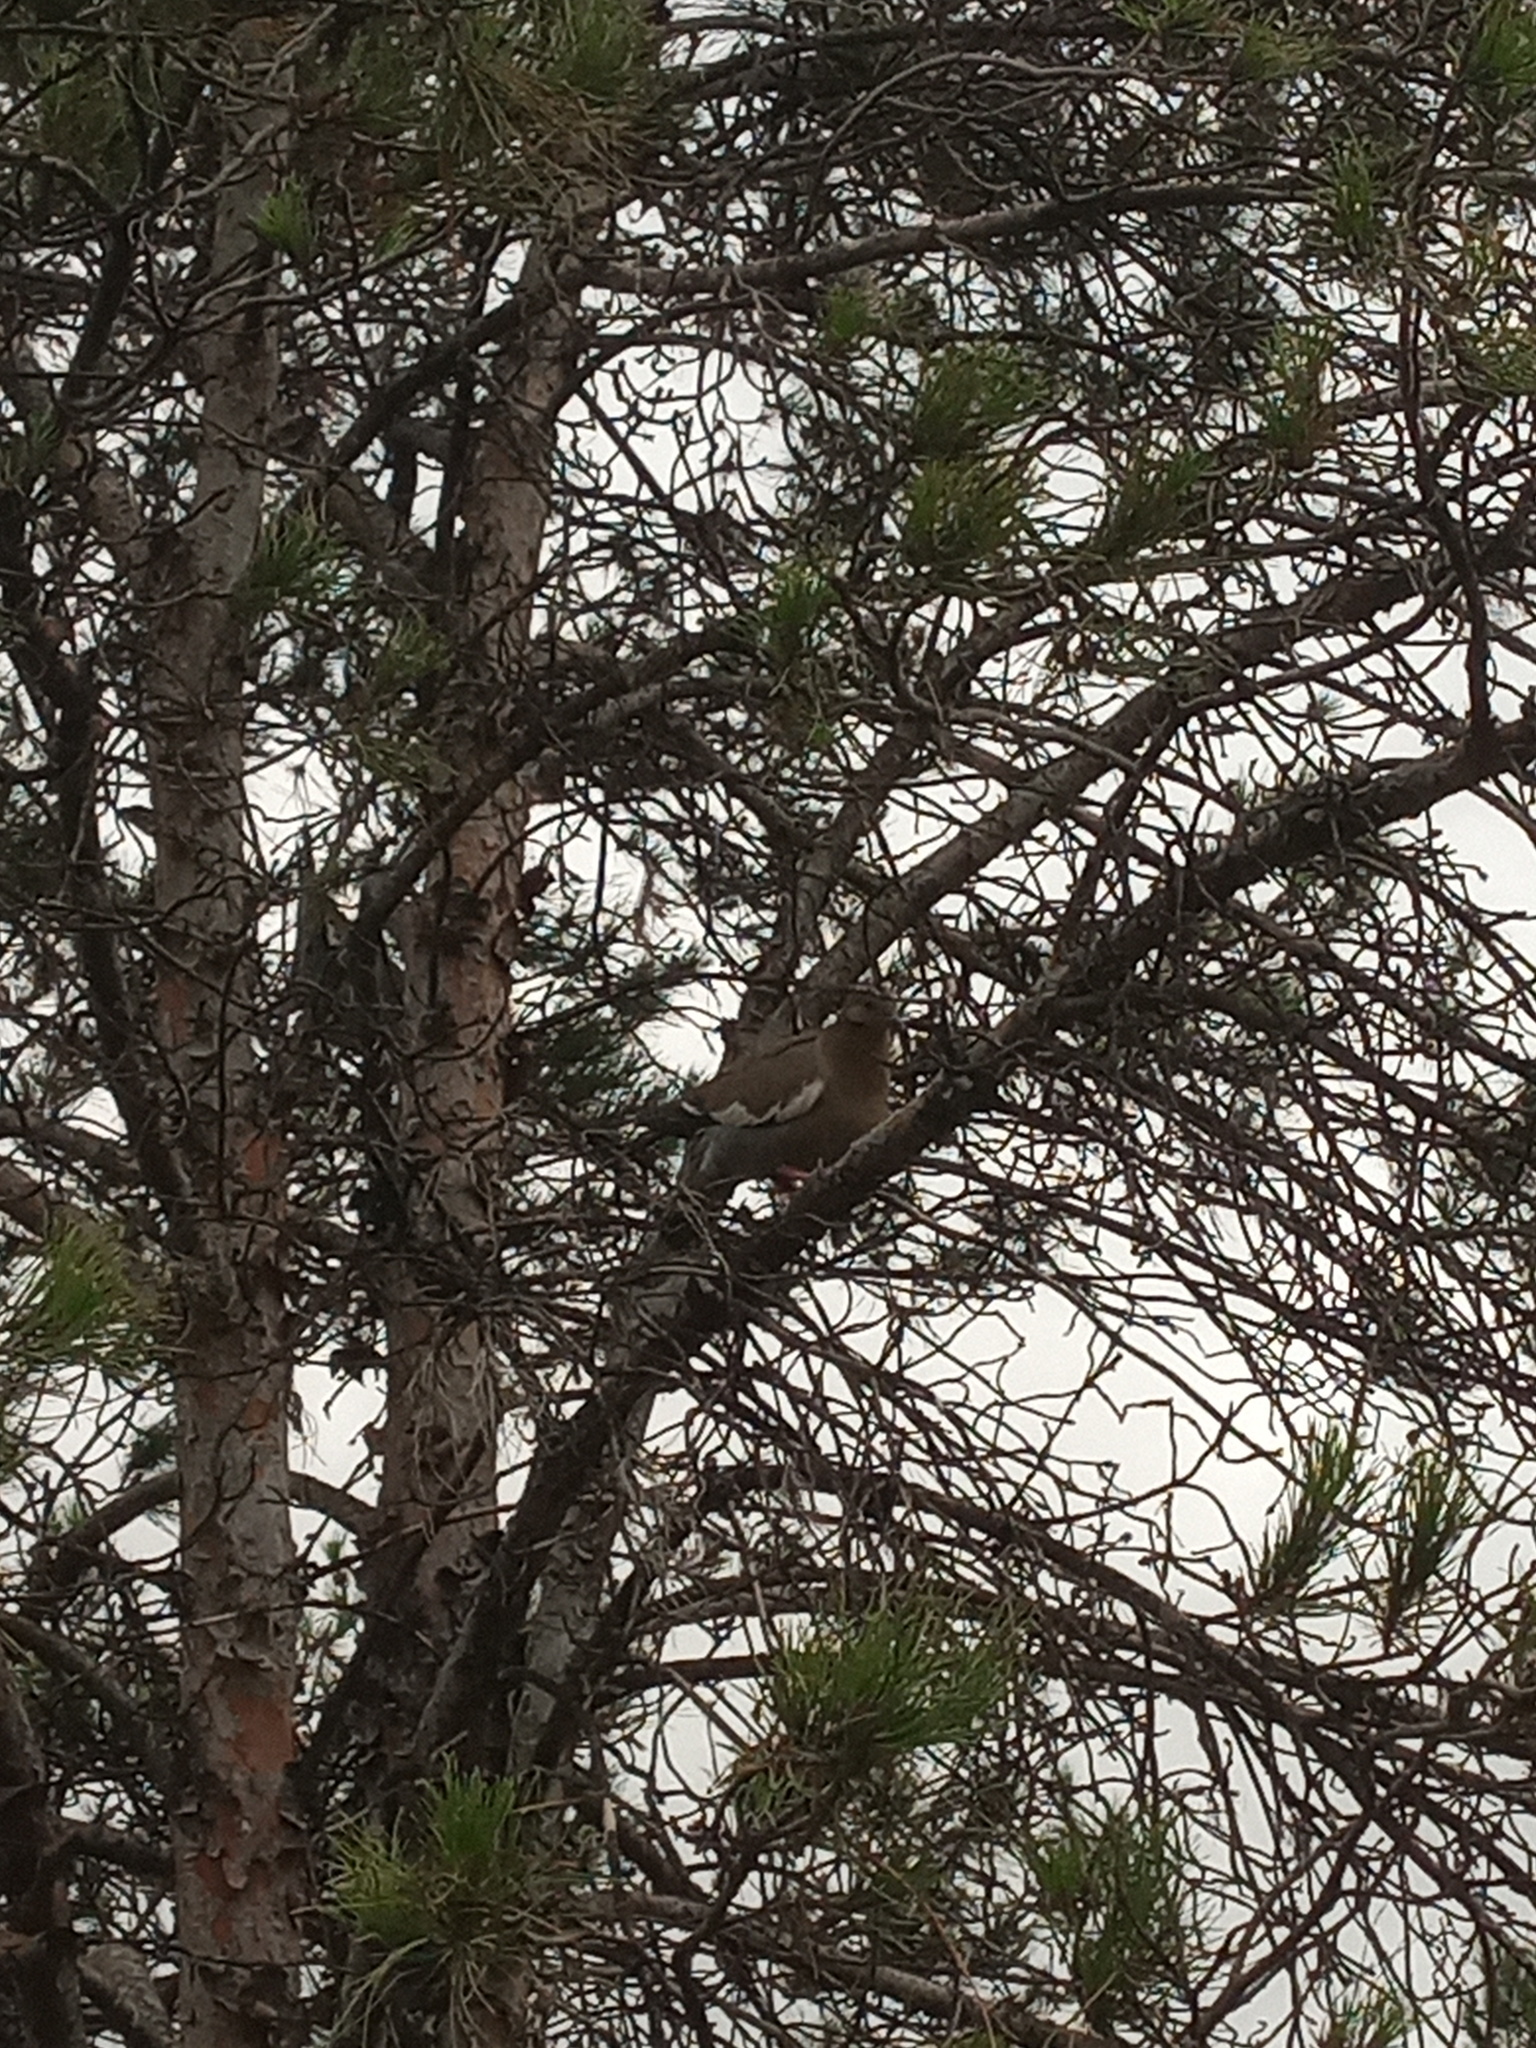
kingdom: Animalia
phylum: Chordata
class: Aves
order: Columbiformes
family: Columbidae
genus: Zenaida
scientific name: Zenaida asiatica
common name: White-winged dove
